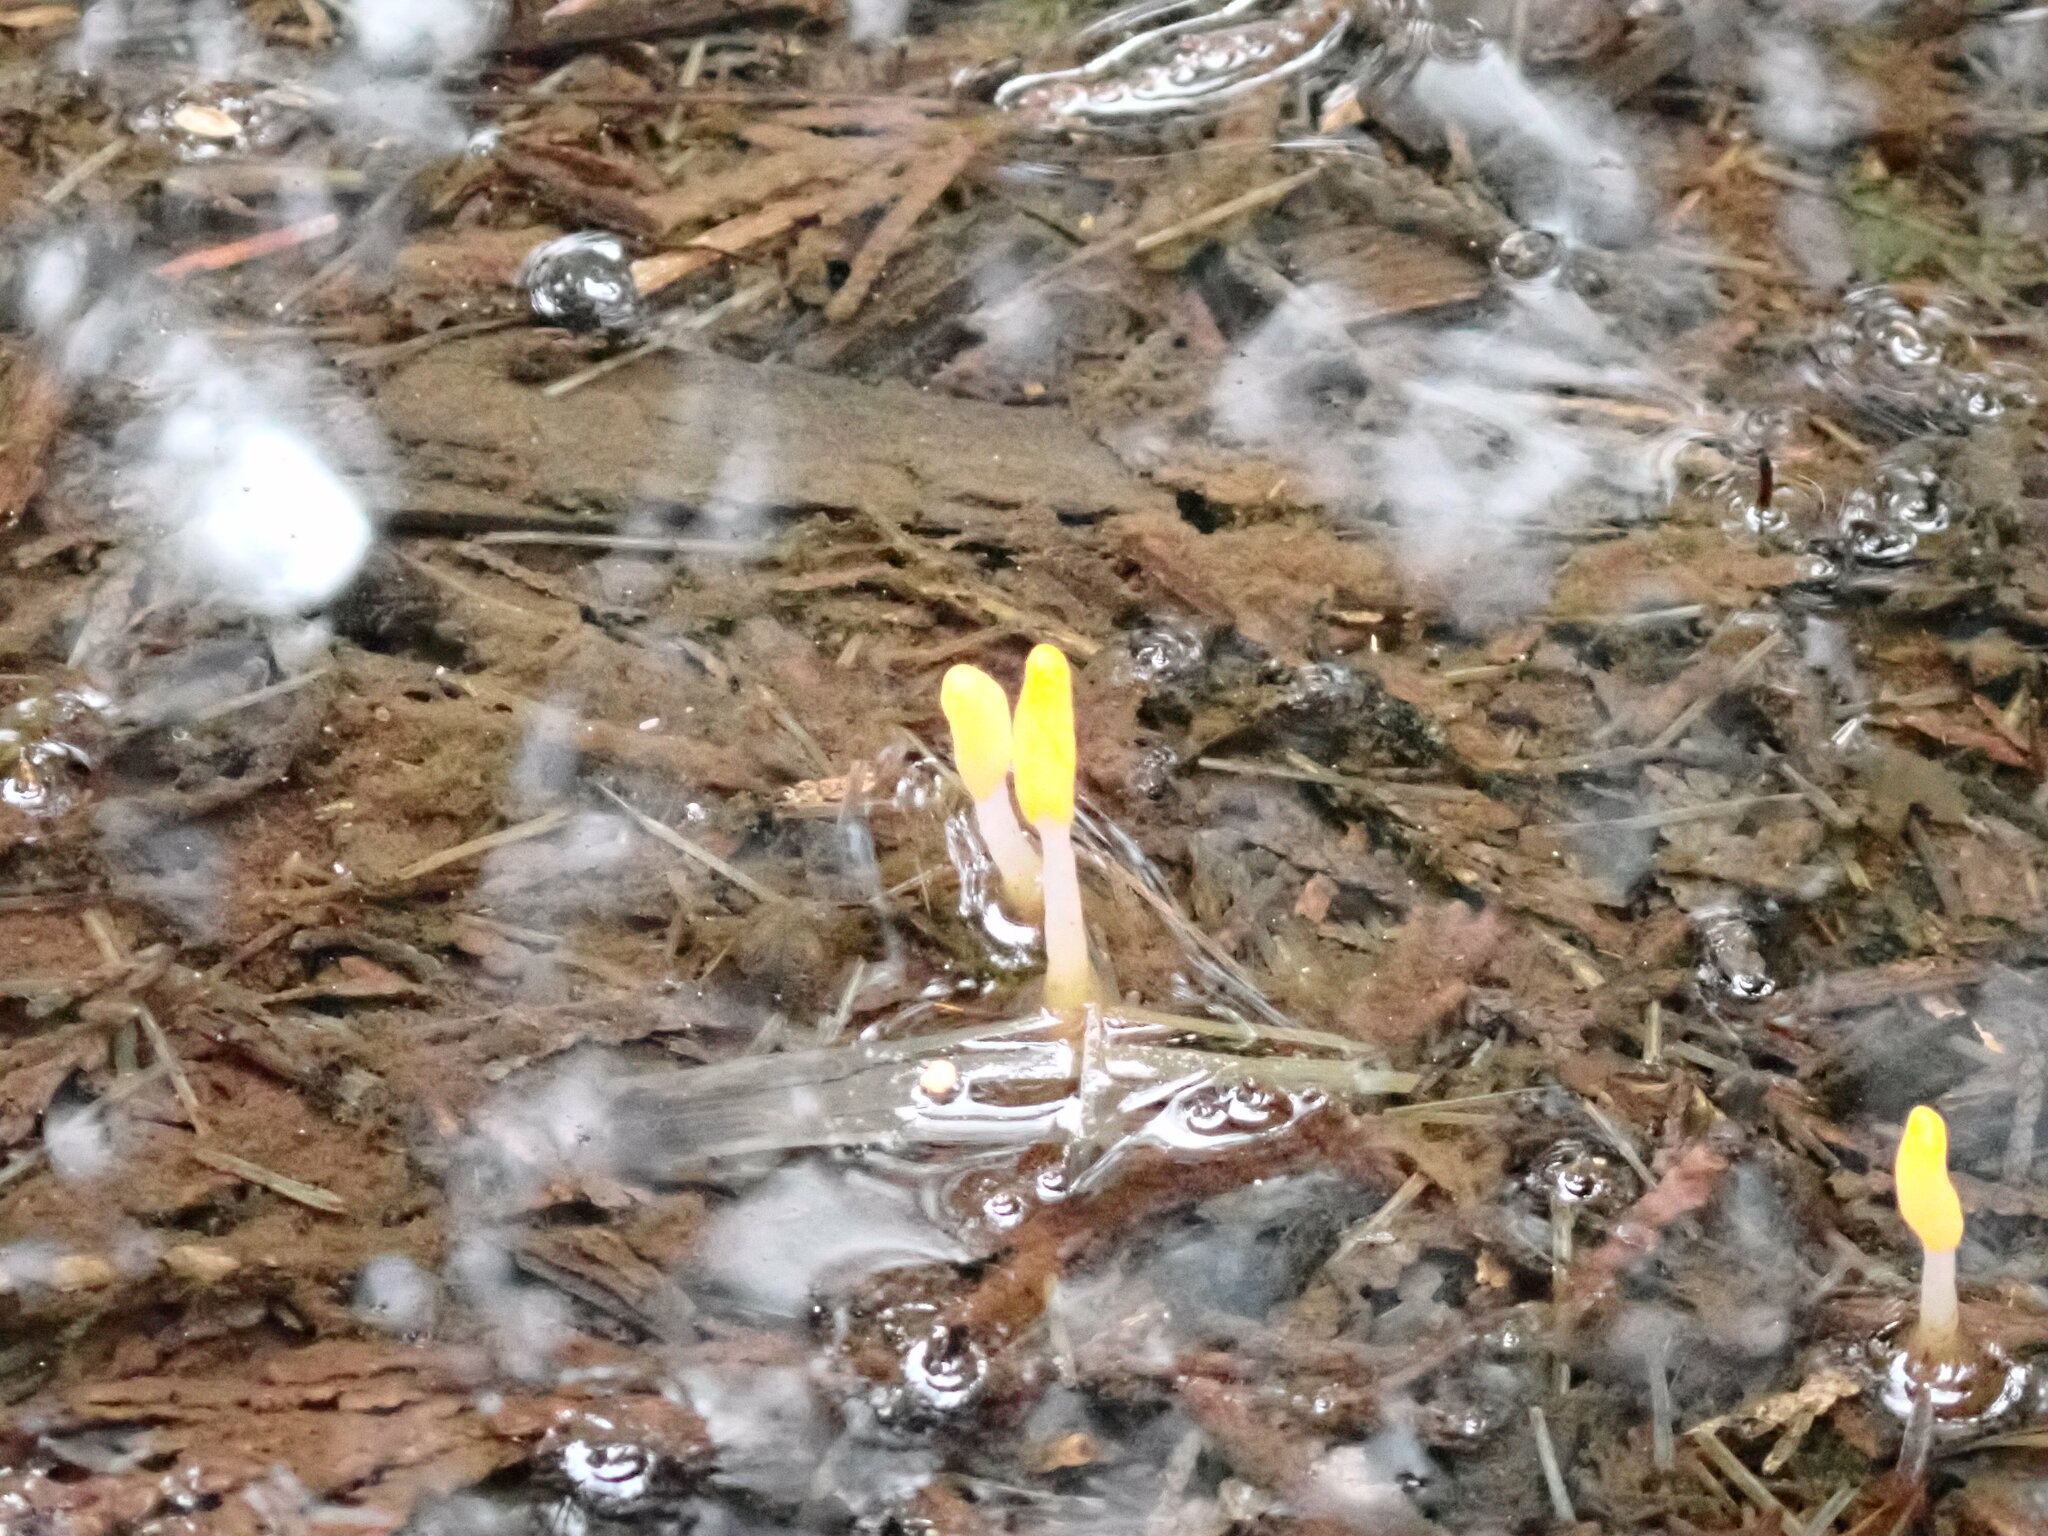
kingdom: Fungi
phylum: Ascomycota
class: Leotiomycetes
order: Helotiales
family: Sclerotiniaceae
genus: Mitrula
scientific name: Mitrula elegans
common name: Swamp beacon
